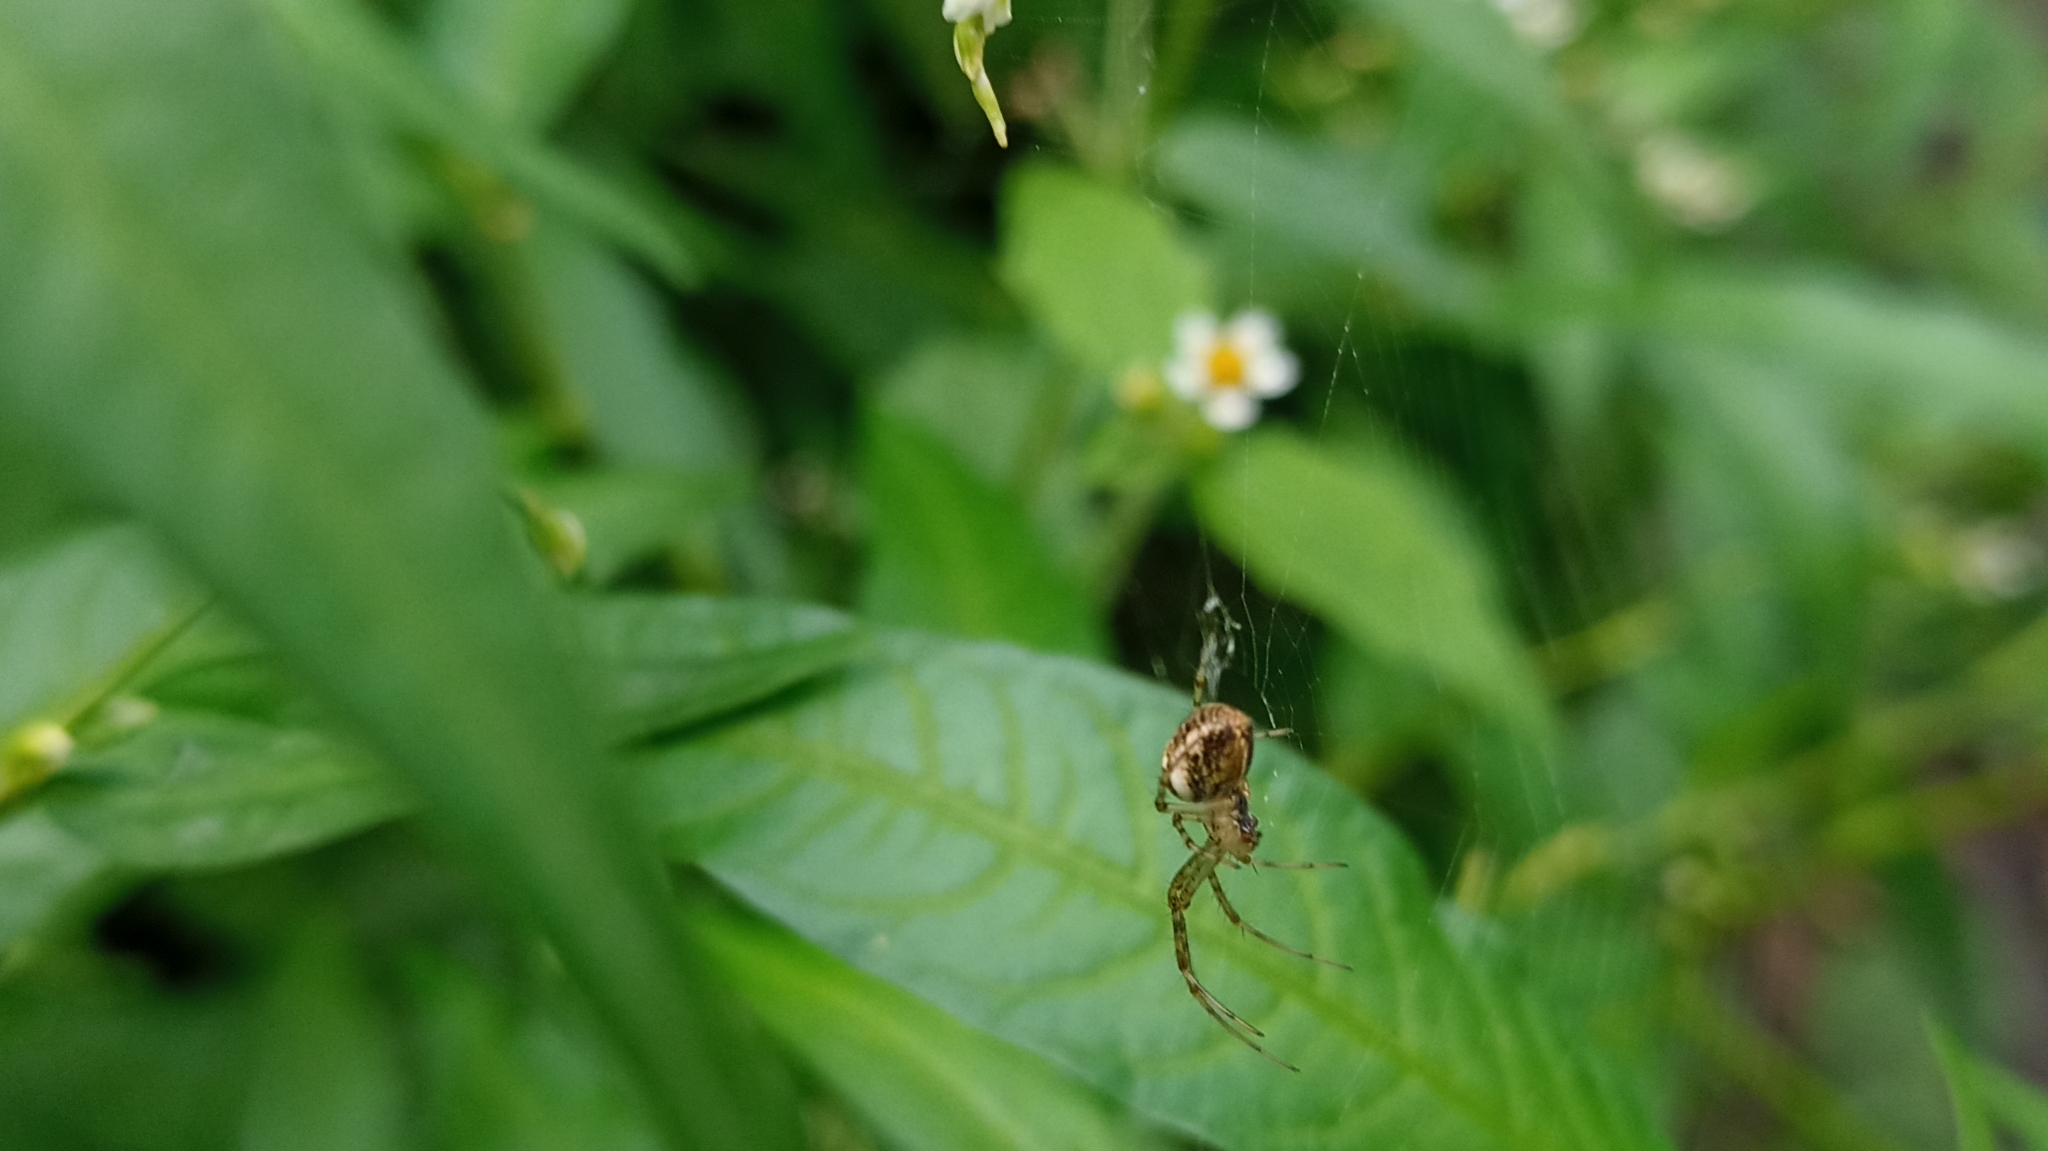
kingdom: Animalia
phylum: Arthropoda
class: Arachnida
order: Araneae
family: Tetragnathidae
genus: Metellina
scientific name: Metellina
